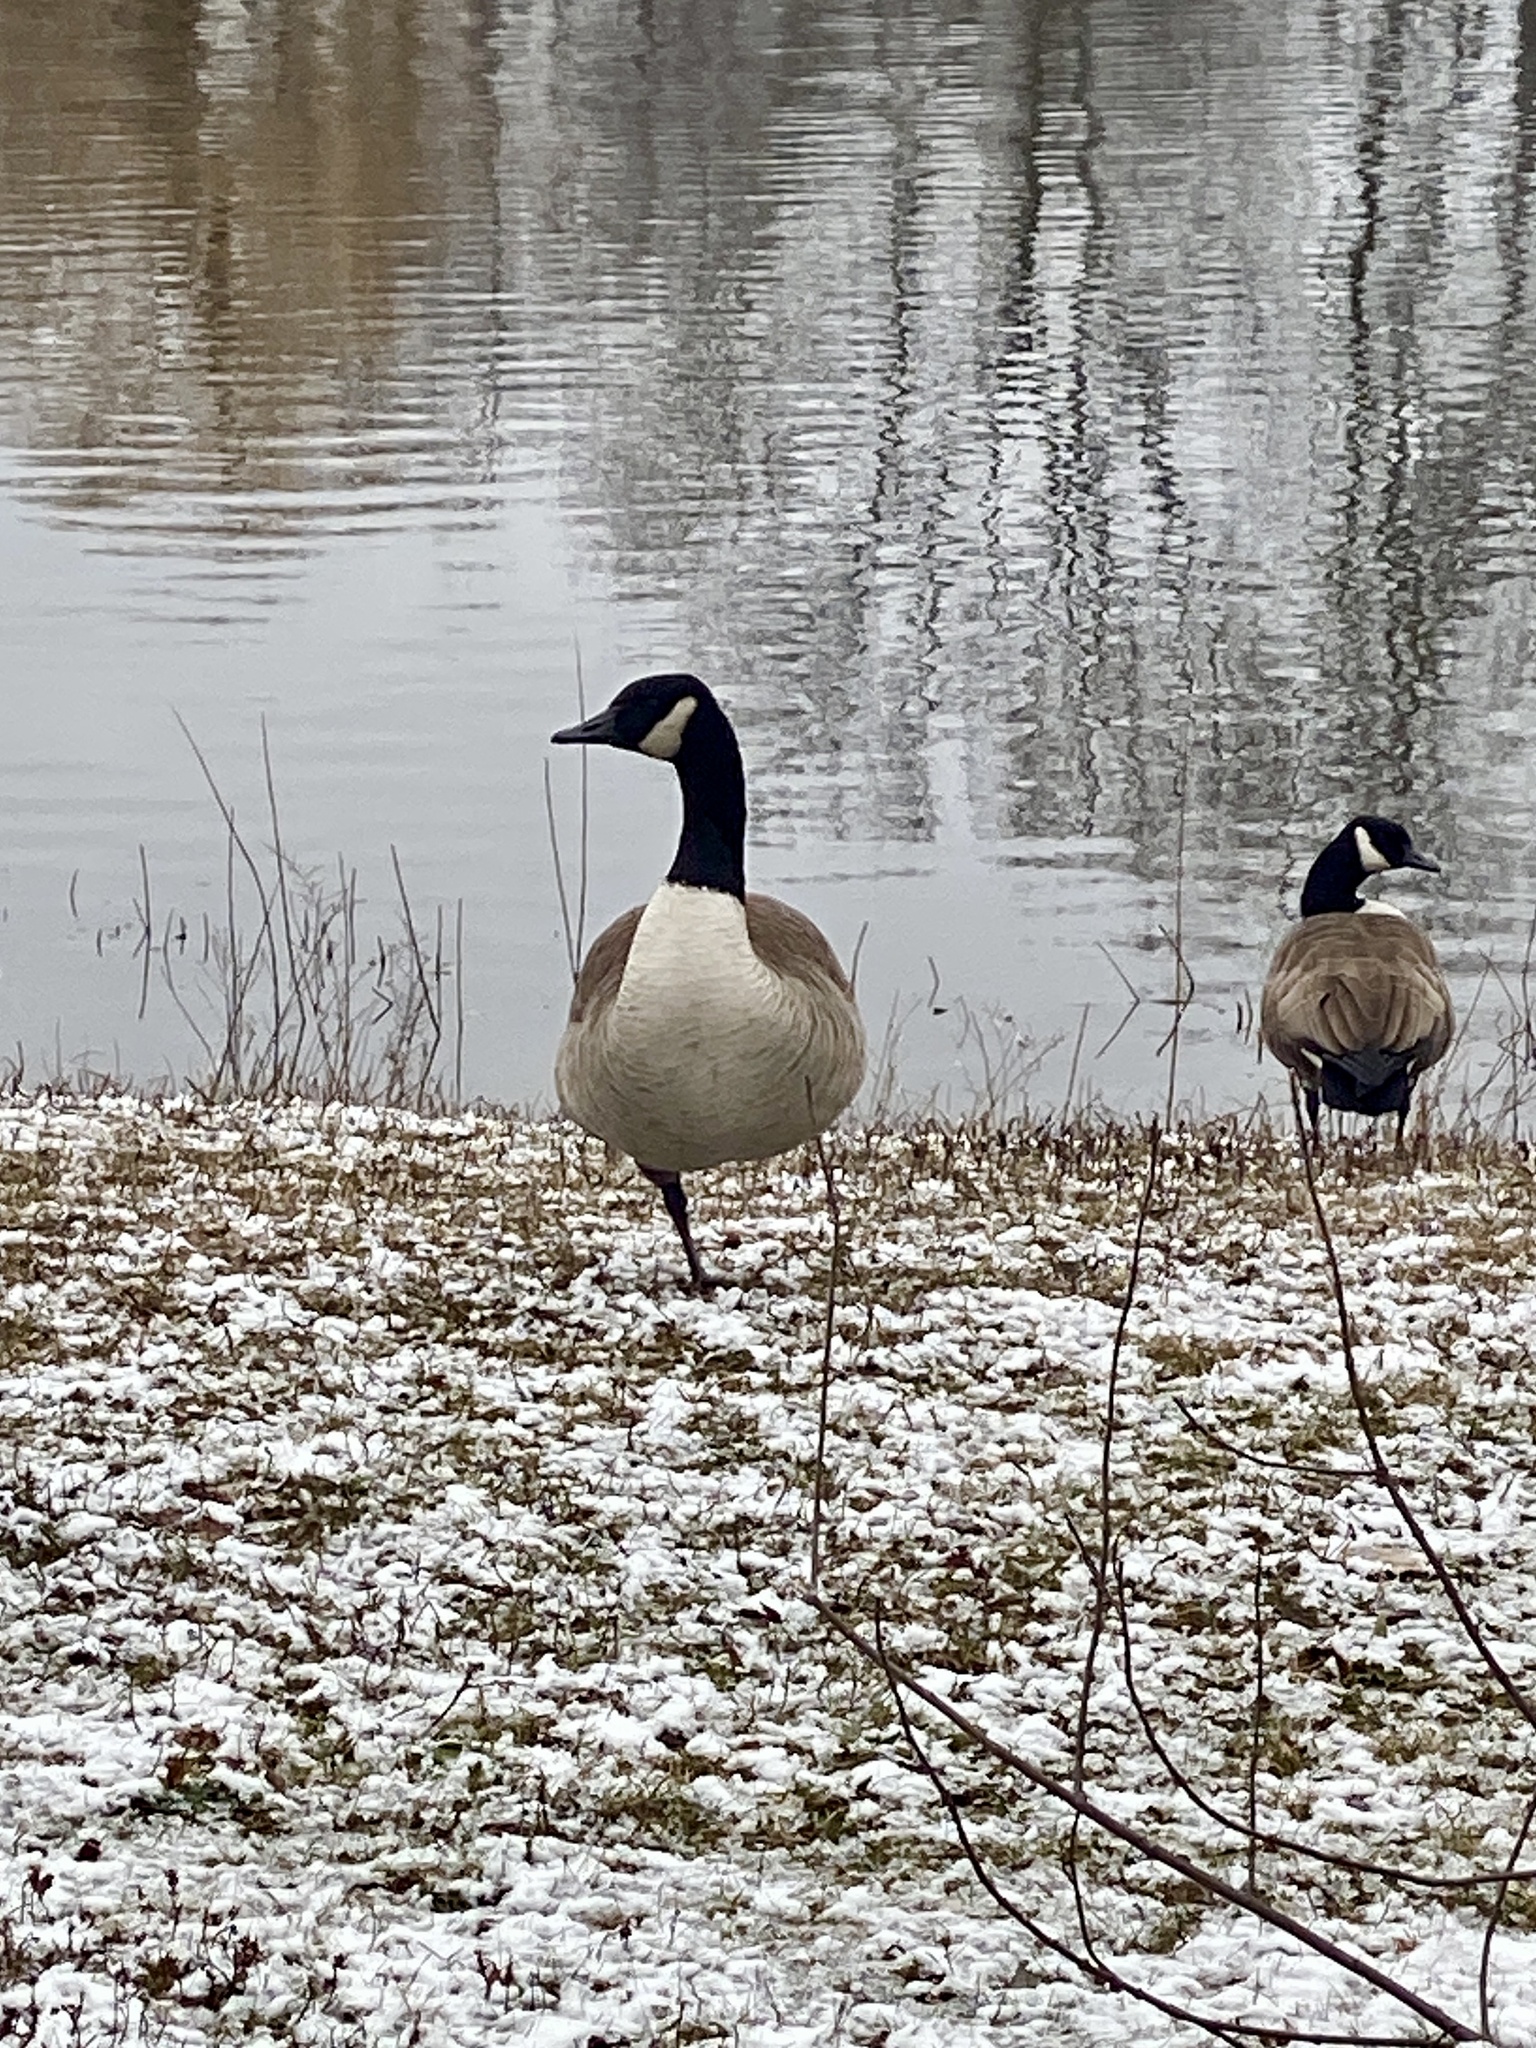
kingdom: Animalia
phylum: Chordata
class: Aves
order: Anseriformes
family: Anatidae
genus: Branta
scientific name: Branta canadensis
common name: Canada goose
